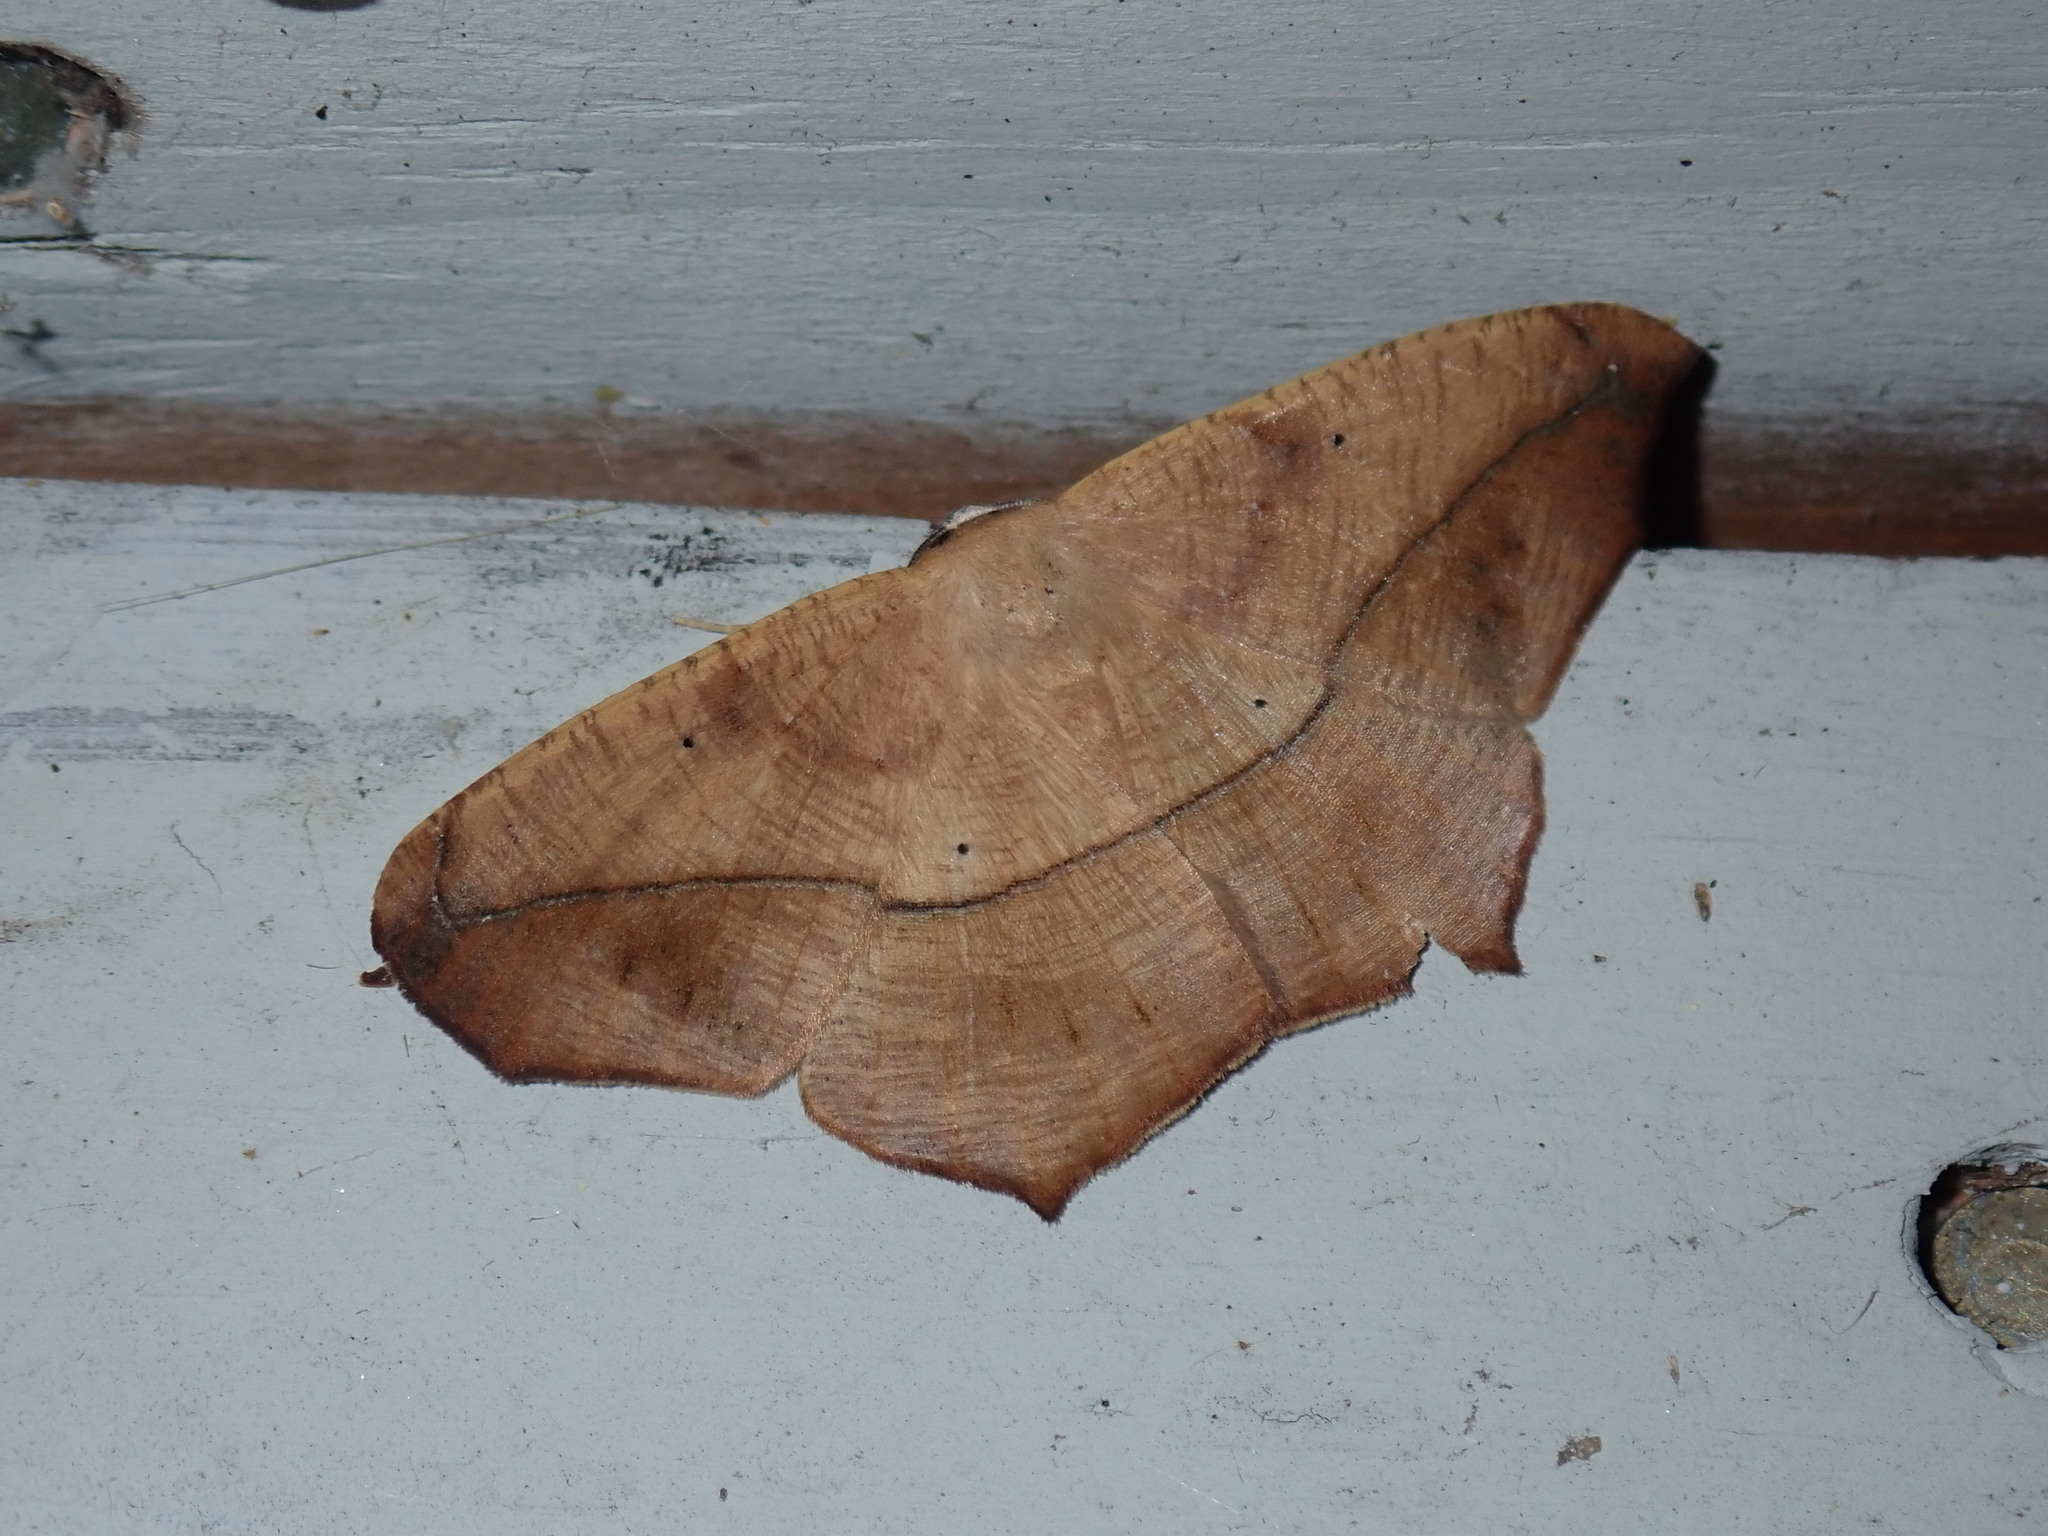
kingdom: Animalia
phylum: Arthropoda
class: Insecta
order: Lepidoptera
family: Geometridae
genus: Prochoerodes
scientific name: Prochoerodes lineola
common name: Large maple spanworm
